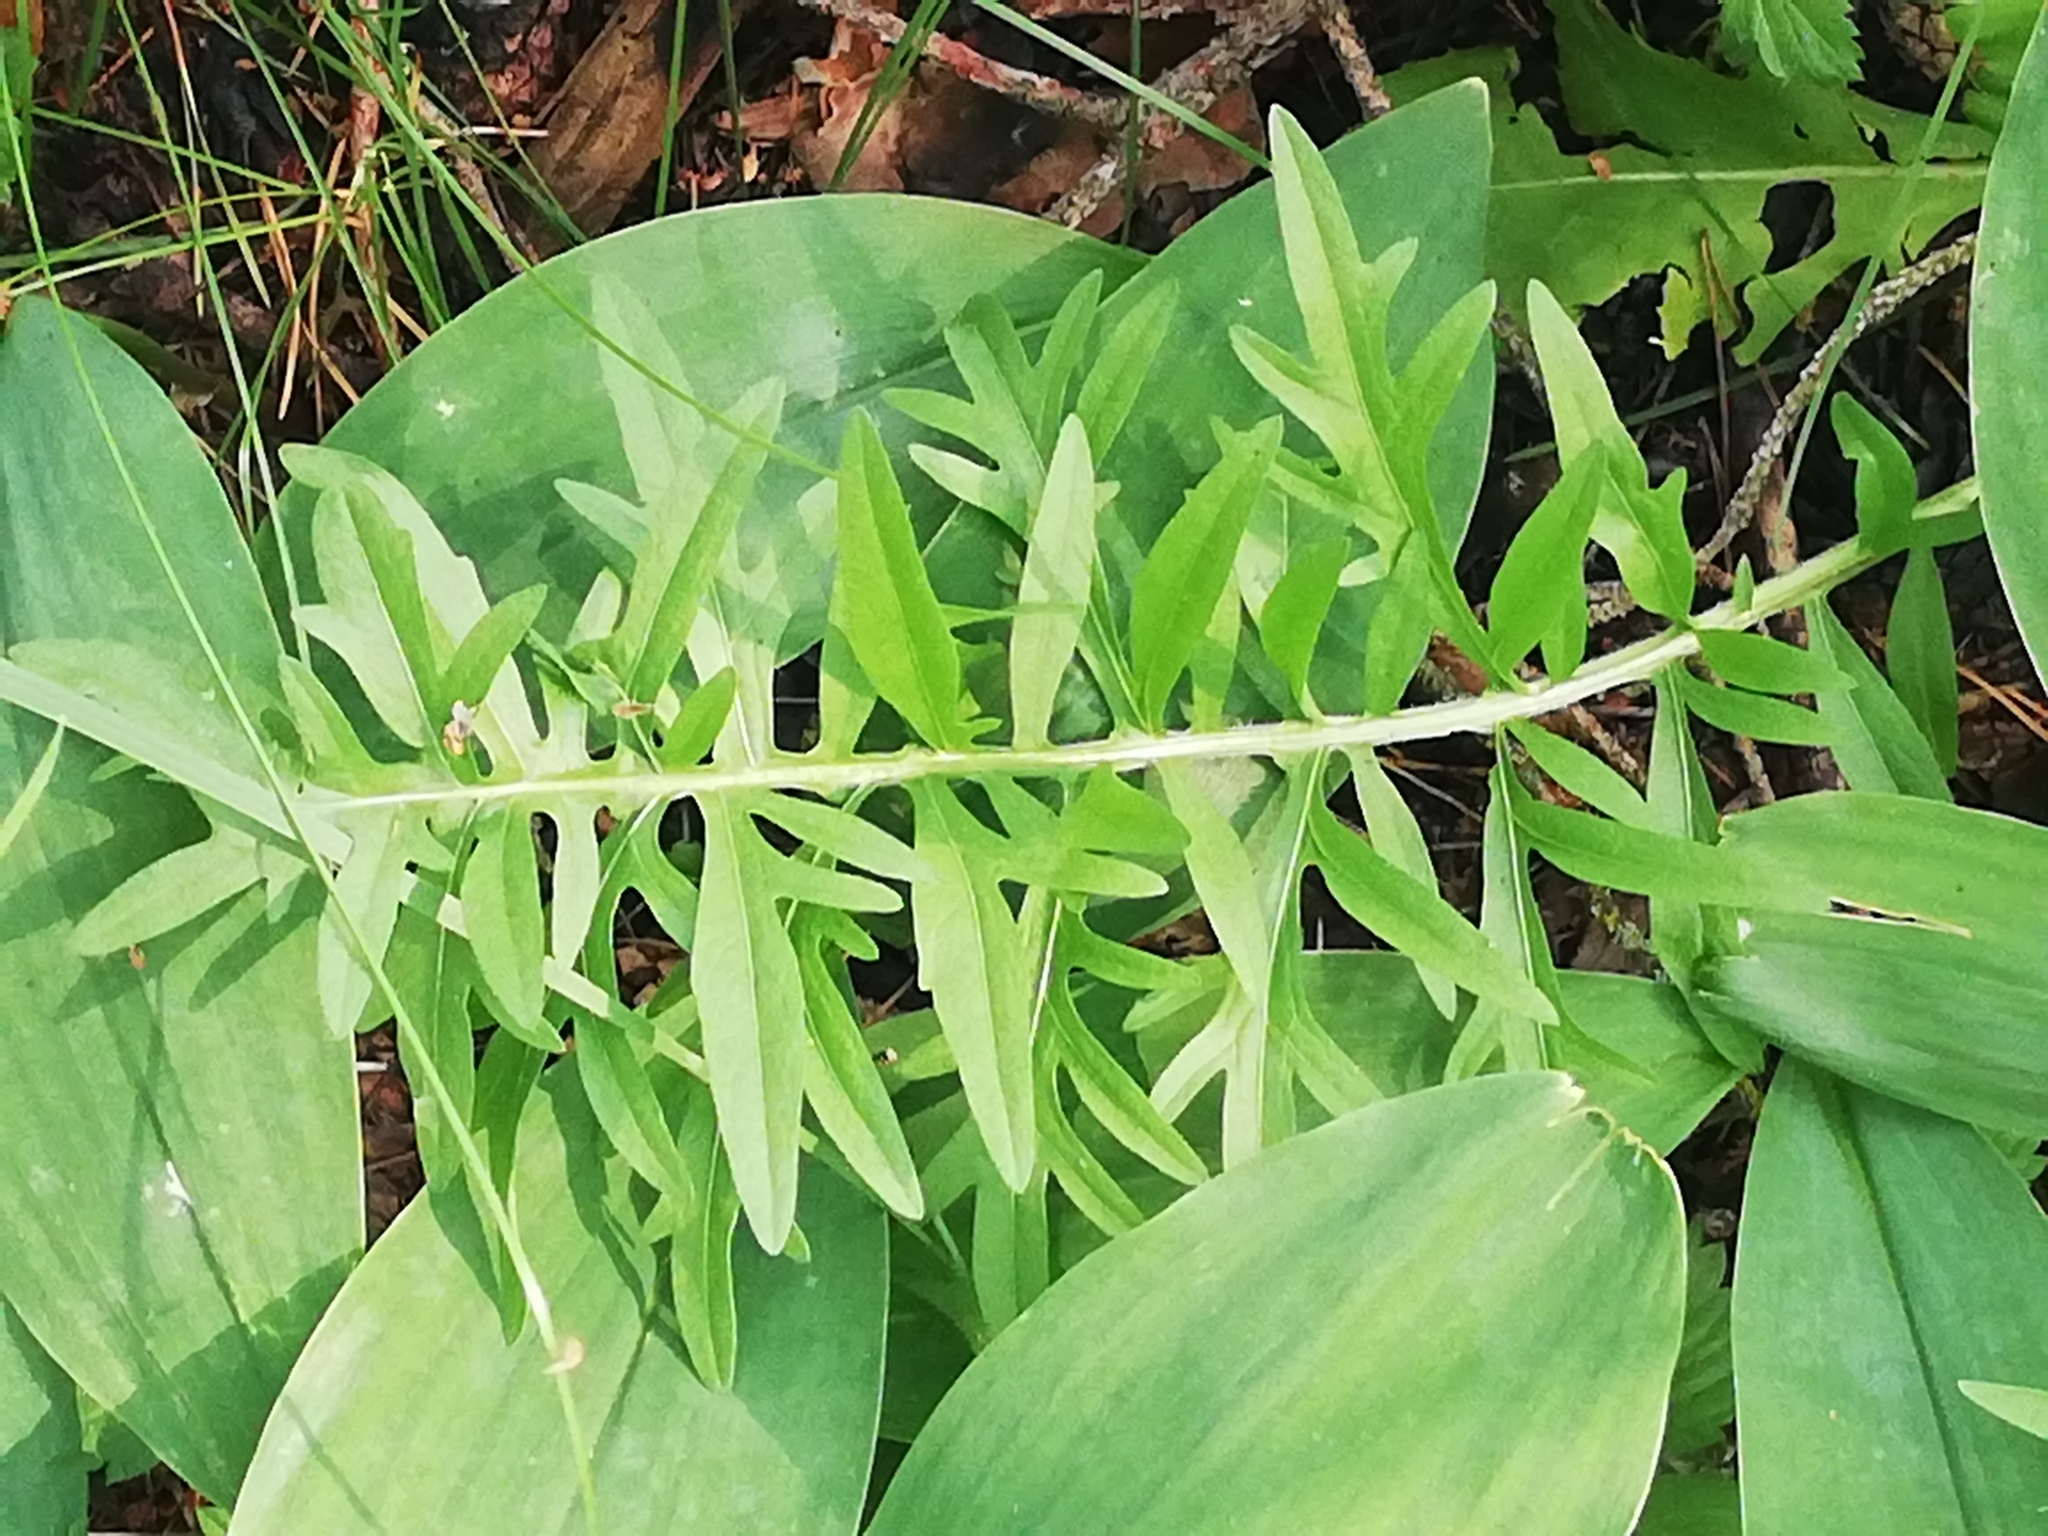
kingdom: Plantae
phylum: Tracheophyta
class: Magnoliopsida
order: Asterales
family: Asteraceae
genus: Centaurea
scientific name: Centaurea scabiosa
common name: Greater knapweed
